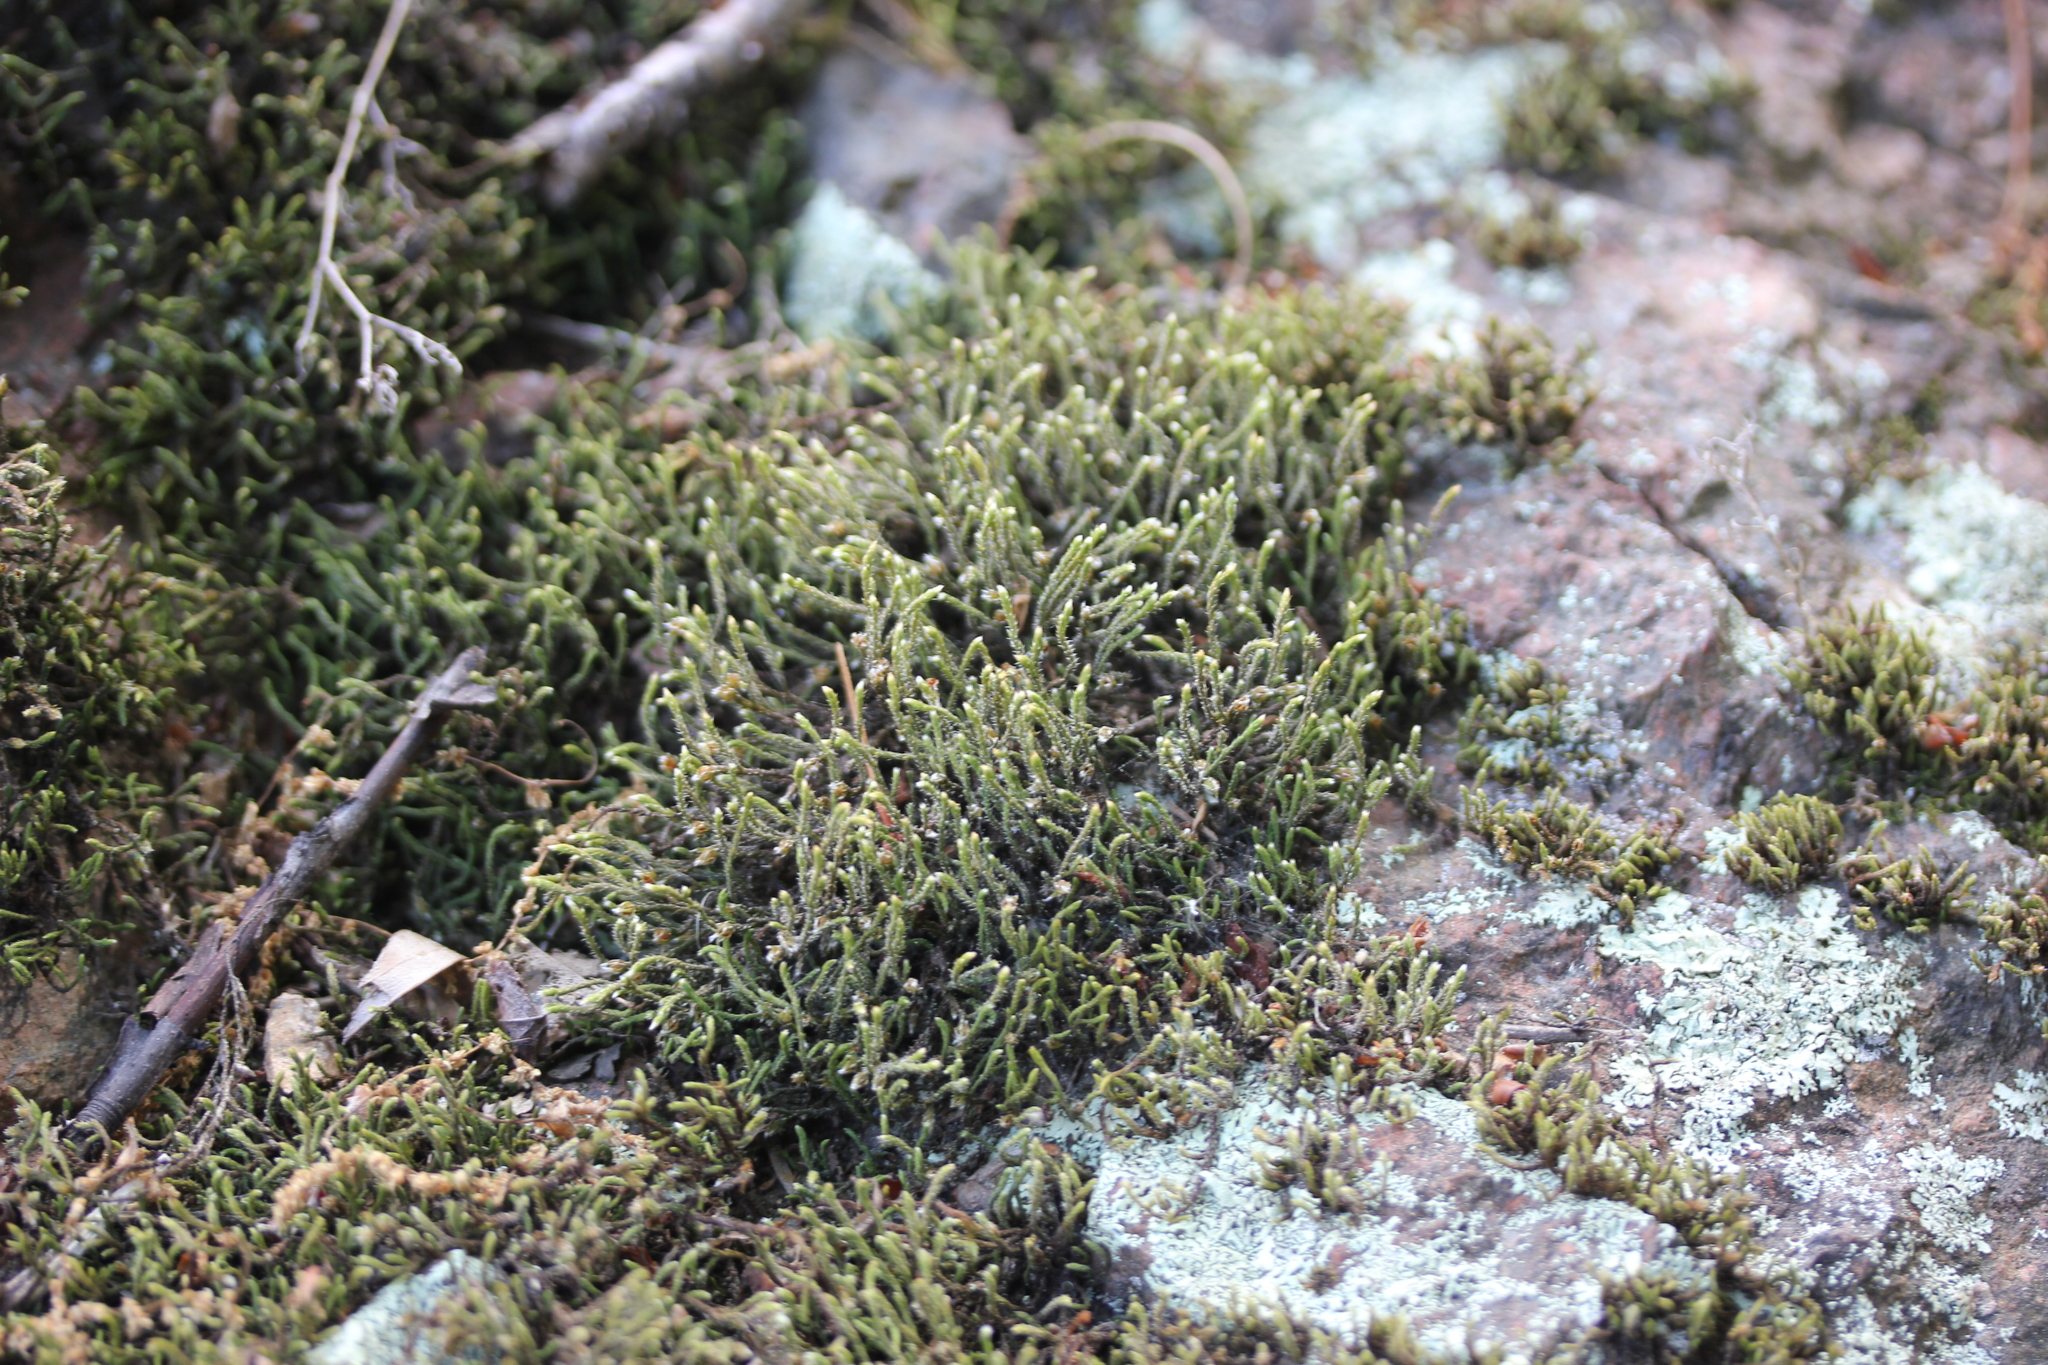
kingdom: Plantae
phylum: Bryophyta
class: Bryopsida
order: Hedwigiales
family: Hedwigiaceae
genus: Hedwigia
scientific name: Hedwigia ciliata
